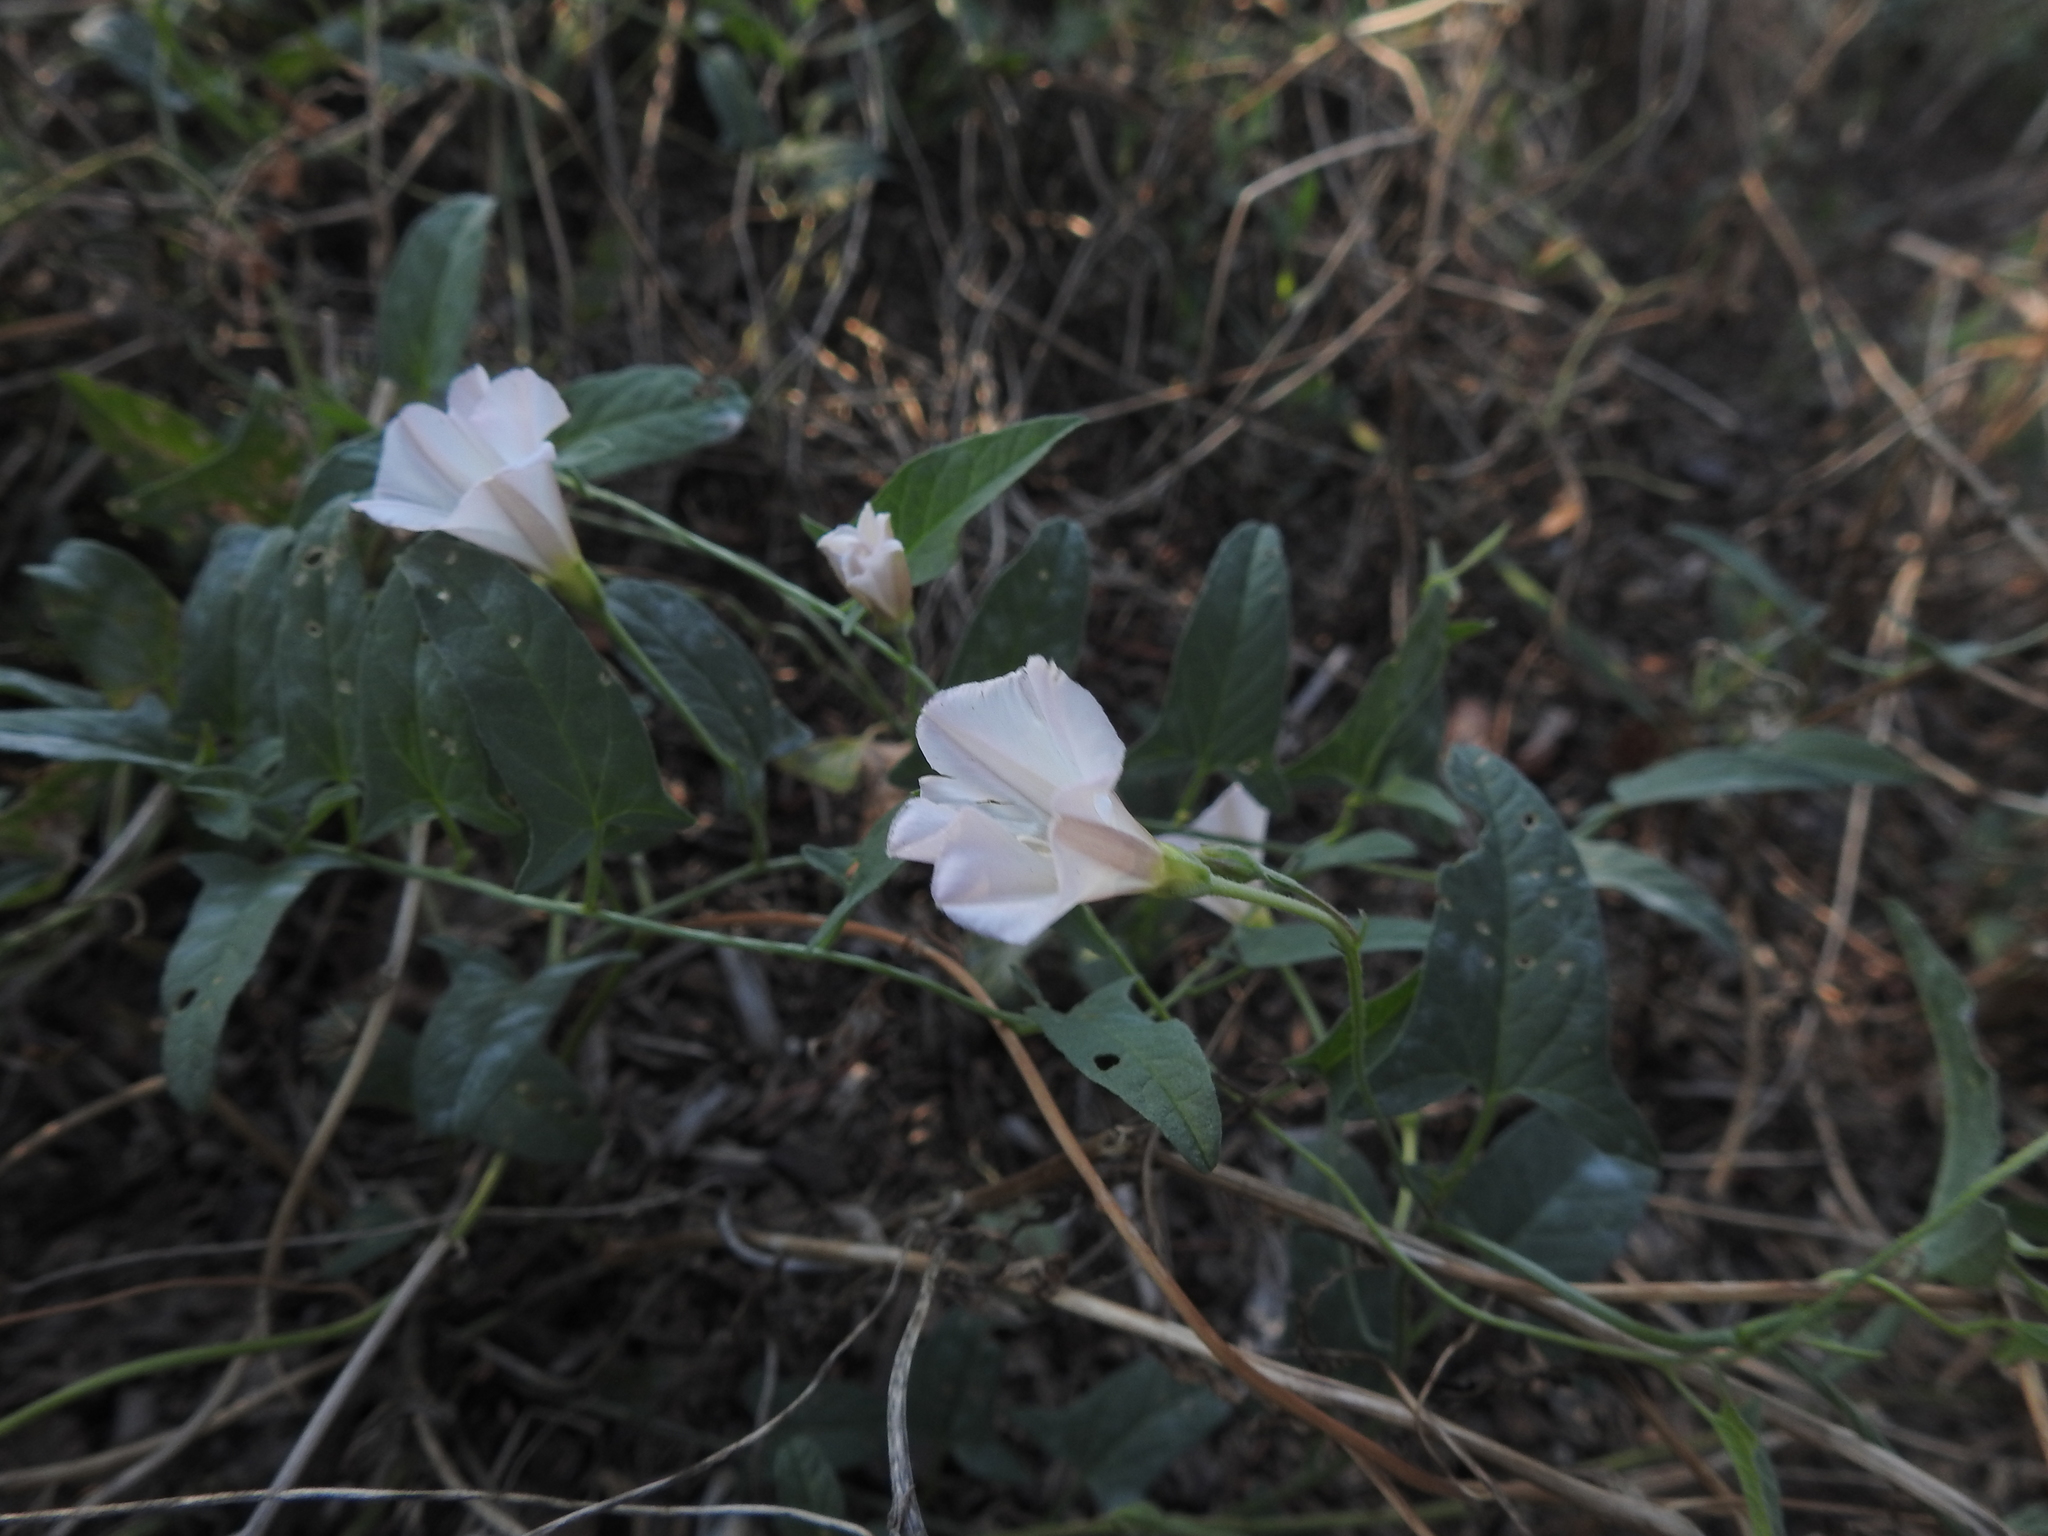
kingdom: Plantae
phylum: Tracheophyta
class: Magnoliopsida
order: Solanales
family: Convolvulaceae
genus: Convolvulus
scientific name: Convolvulus arvensis
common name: Field bindweed
